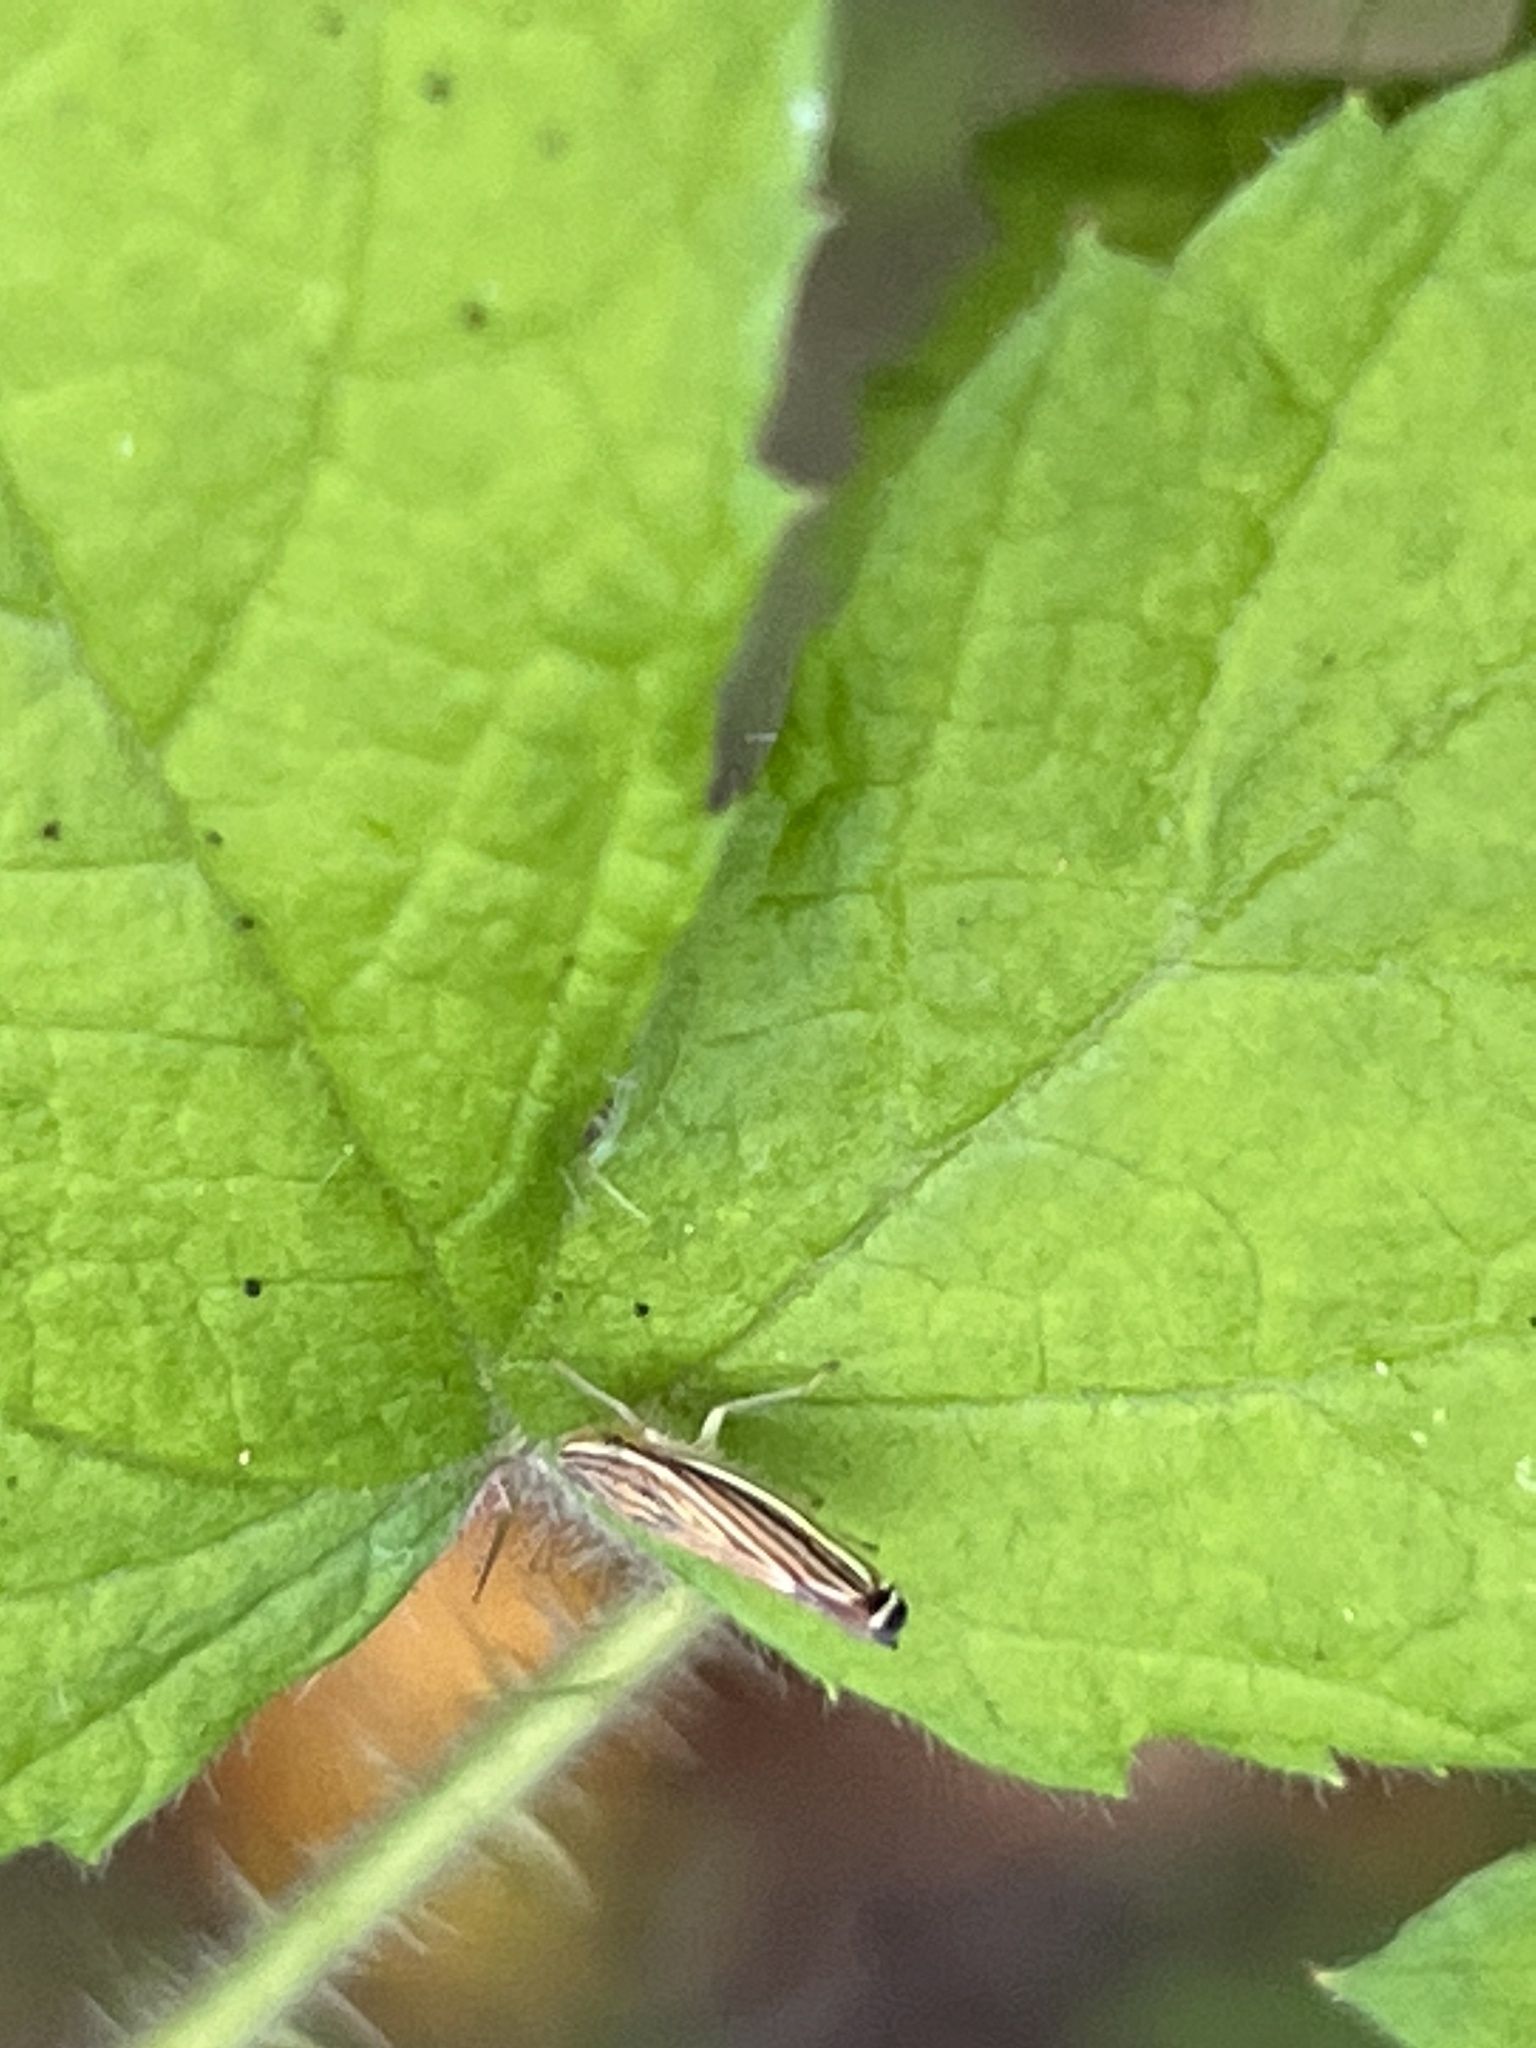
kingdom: Animalia
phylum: Arthropoda
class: Insecta
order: Hemiptera
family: Cicadellidae
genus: Sibovia
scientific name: Sibovia occatoria
